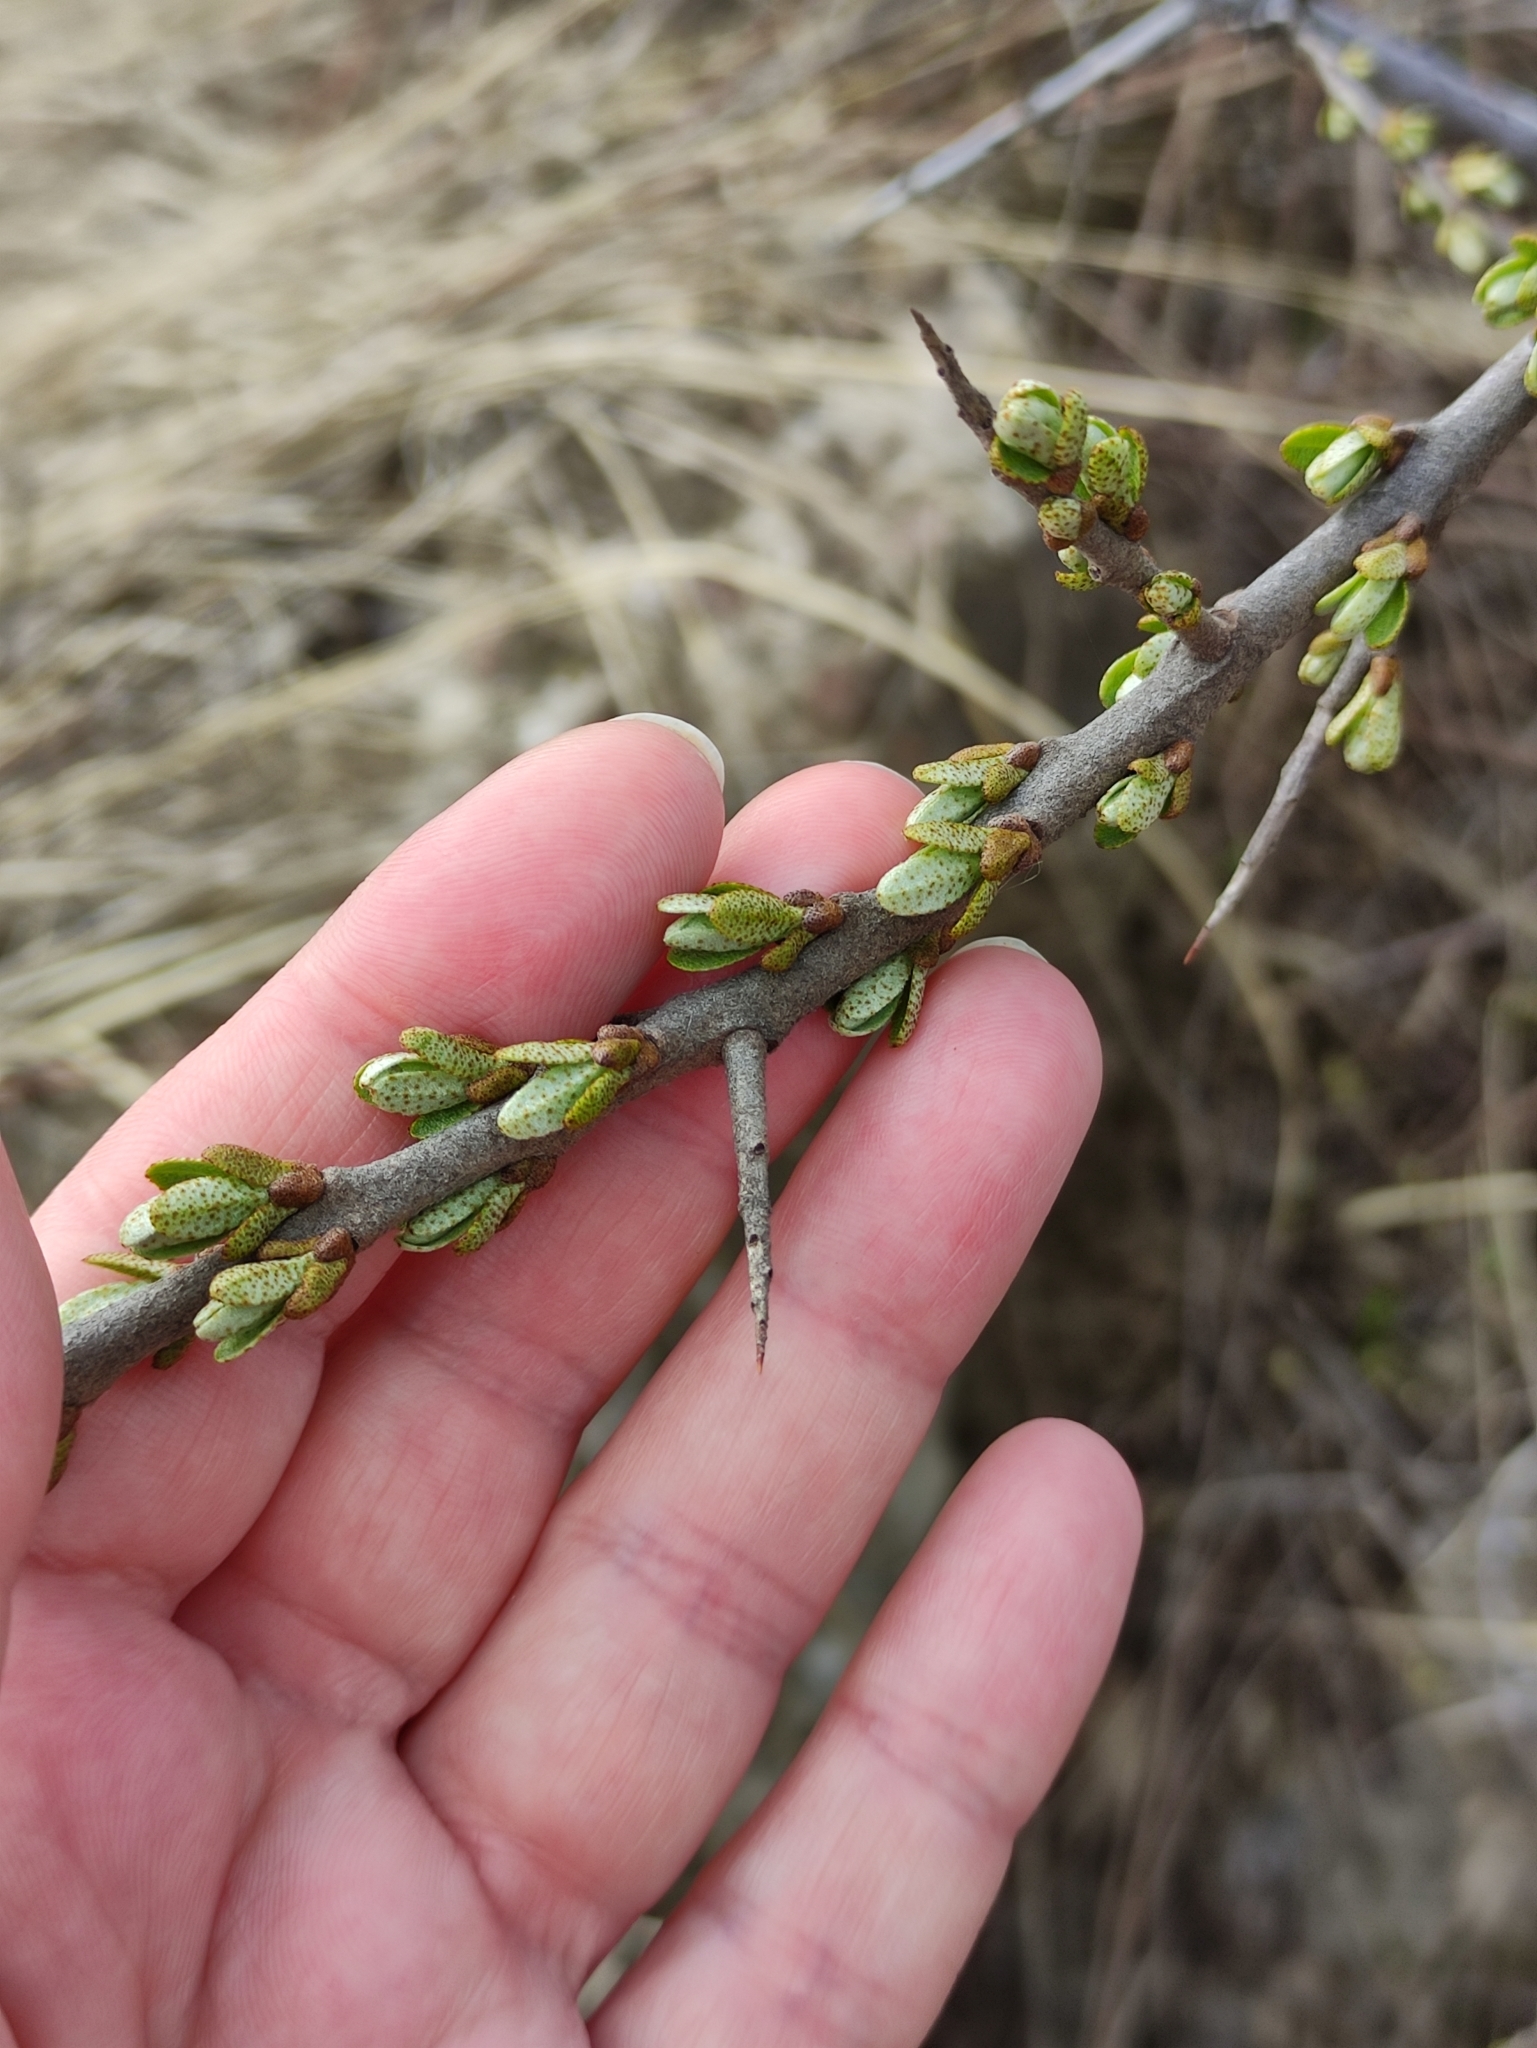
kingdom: Plantae
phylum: Tracheophyta
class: Magnoliopsida
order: Rosales
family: Elaeagnaceae
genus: Hippophae
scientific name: Hippophae rhamnoides
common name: Sea-buckthorn
